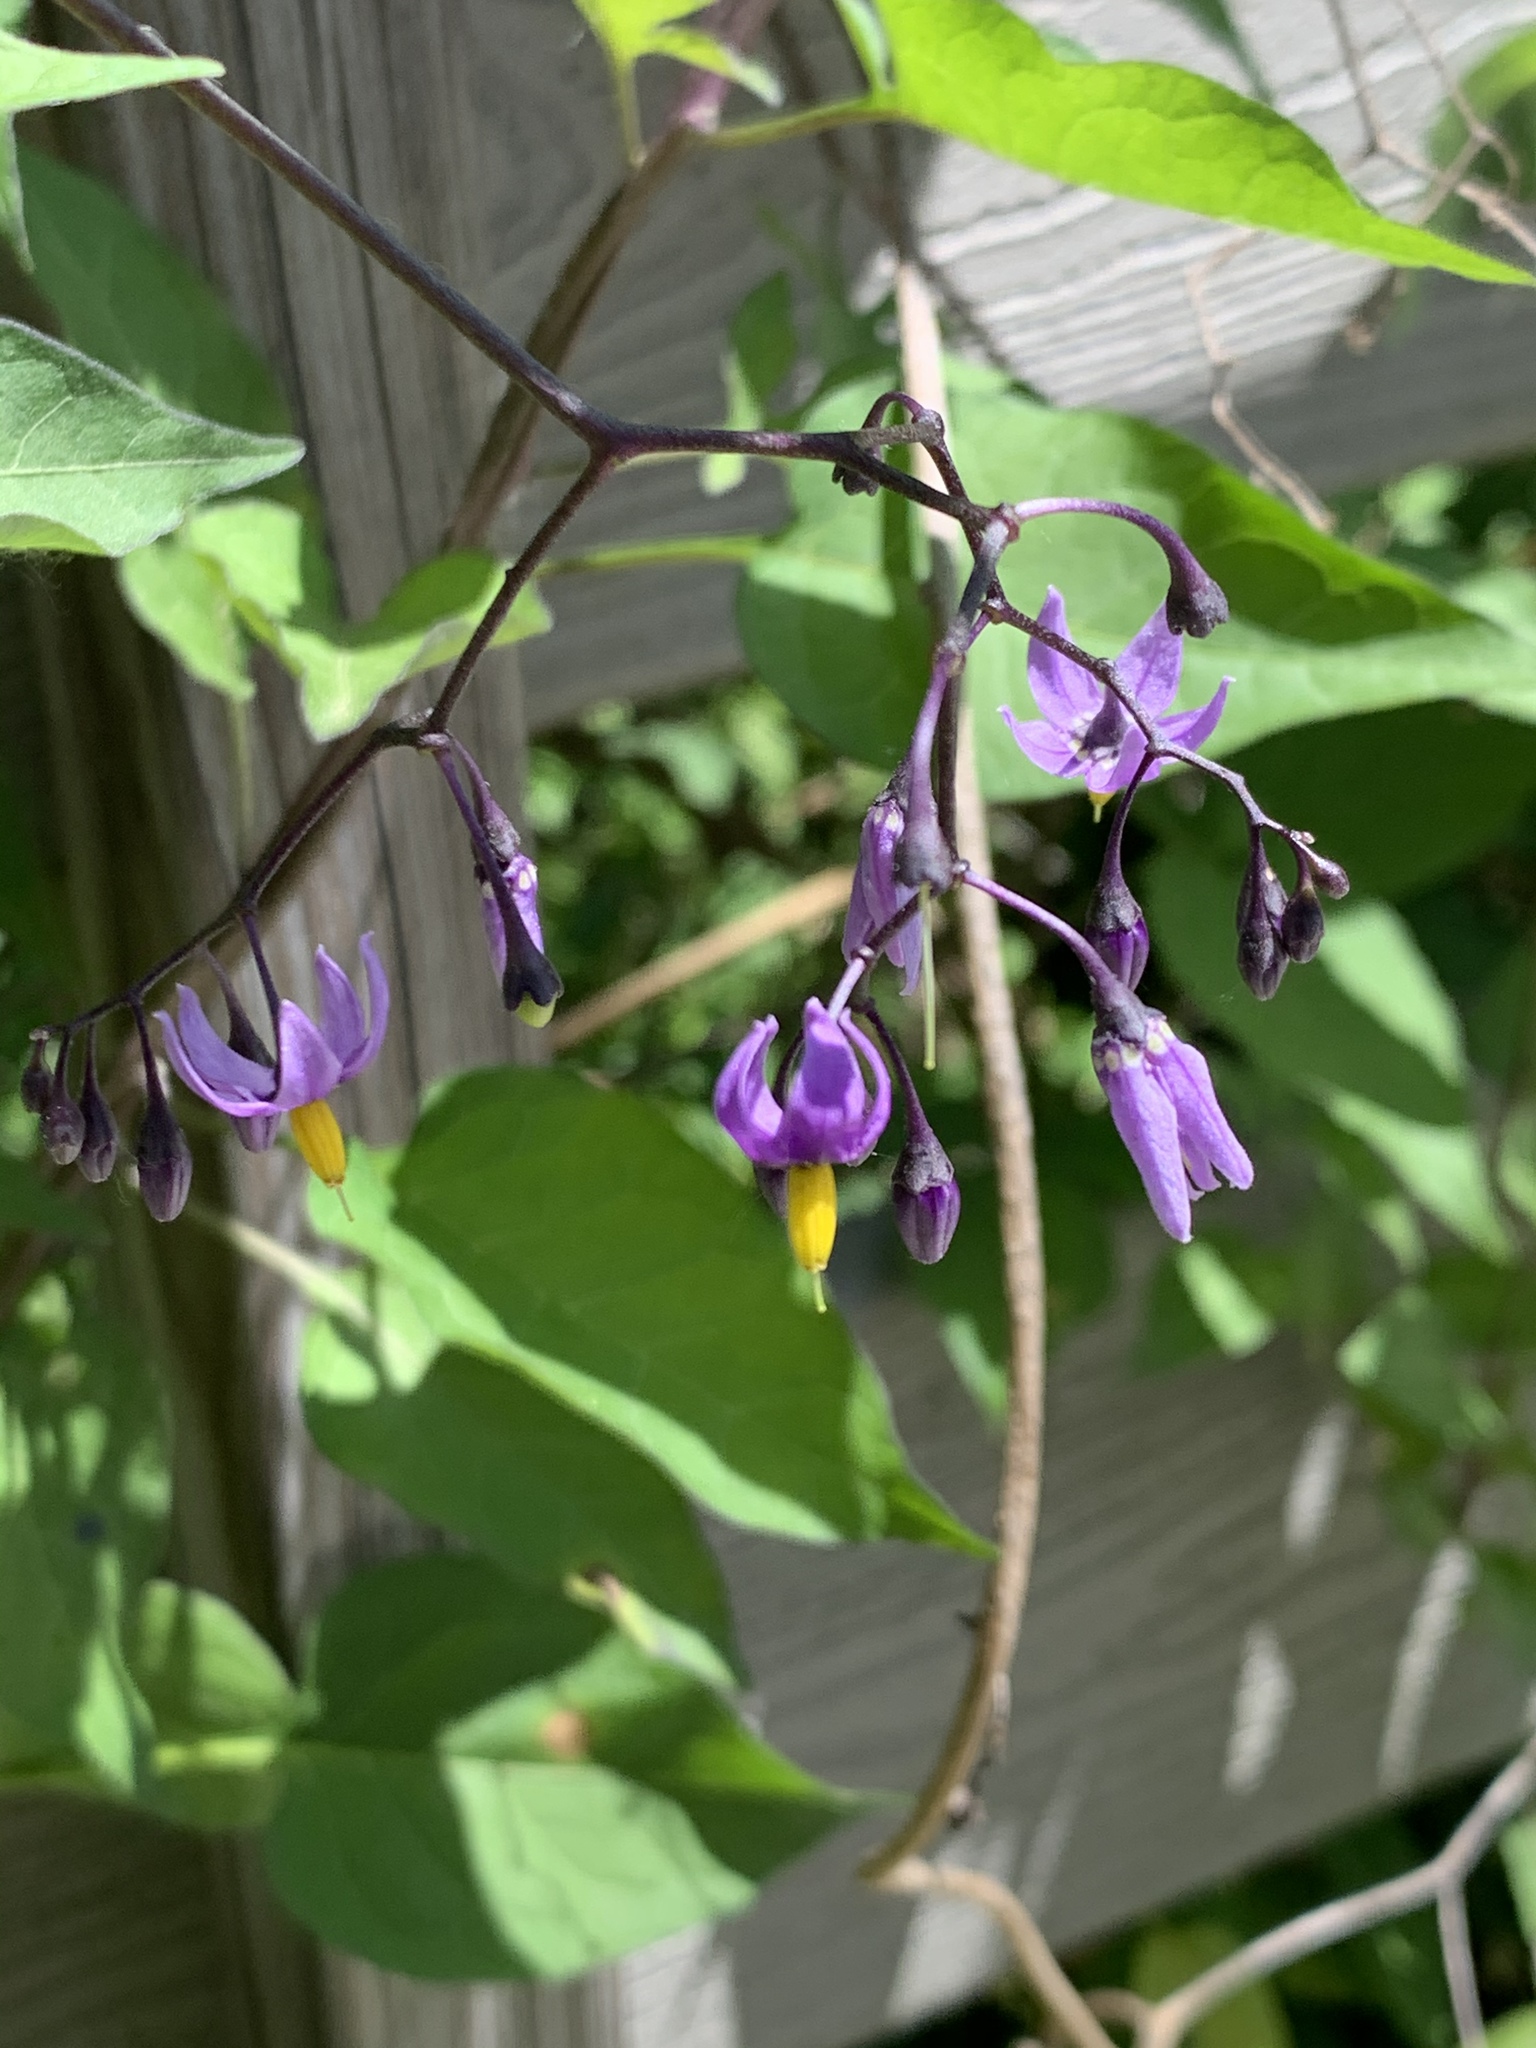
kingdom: Plantae
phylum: Tracheophyta
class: Magnoliopsida
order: Solanales
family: Solanaceae
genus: Solanum
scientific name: Solanum dulcamara
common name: Climbing nightshade
